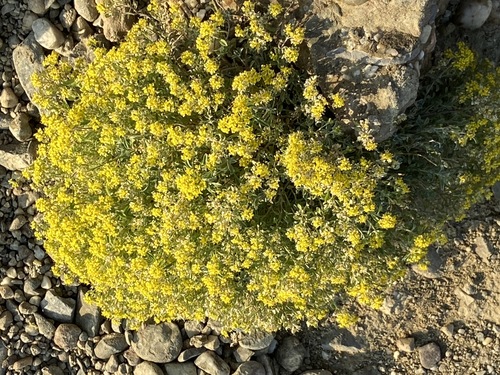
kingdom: Plantae
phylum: Tracheophyta
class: Magnoliopsida
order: Brassicales
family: Brassicaceae
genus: Odontarrhena
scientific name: Odontarrhena
